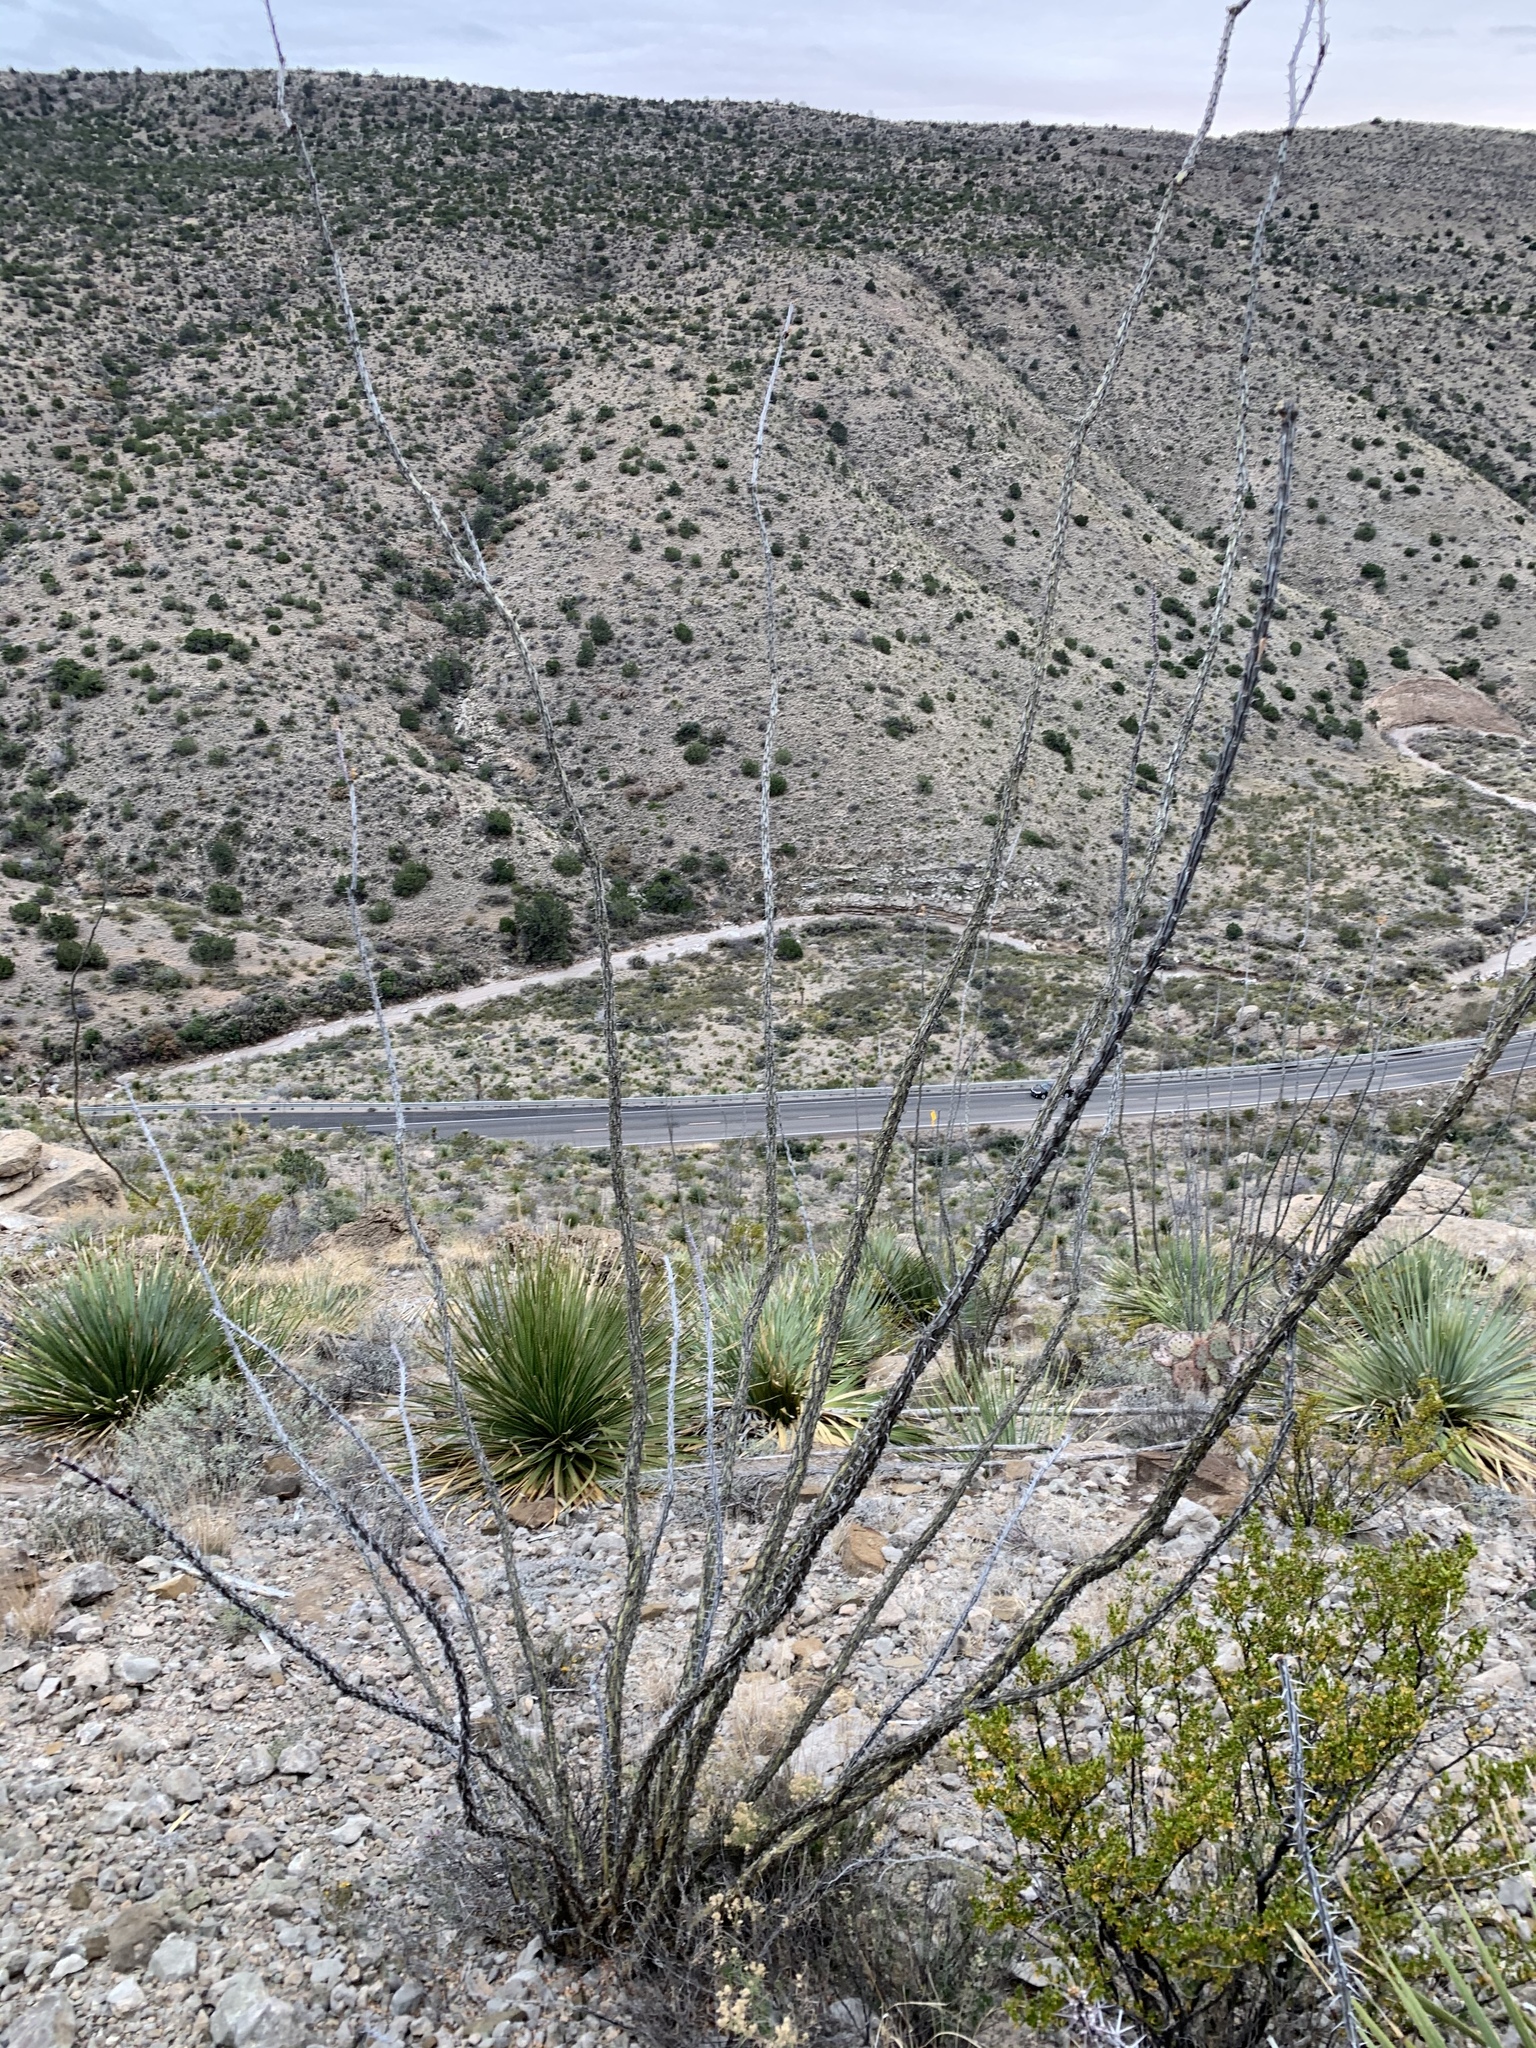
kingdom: Plantae
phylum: Tracheophyta
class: Magnoliopsida
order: Ericales
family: Fouquieriaceae
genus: Fouquieria
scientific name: Fouquieria splendens
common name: Vine-cactus
